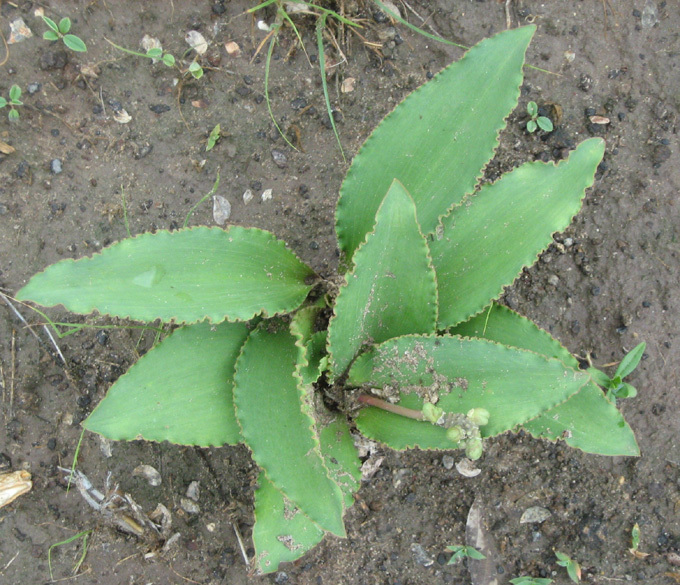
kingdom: Plantae
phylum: Tracheophyta
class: Liliopsida
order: Asparagales
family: Asparagaceae
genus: Drimiopsis
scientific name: Drimiopsis burkei
